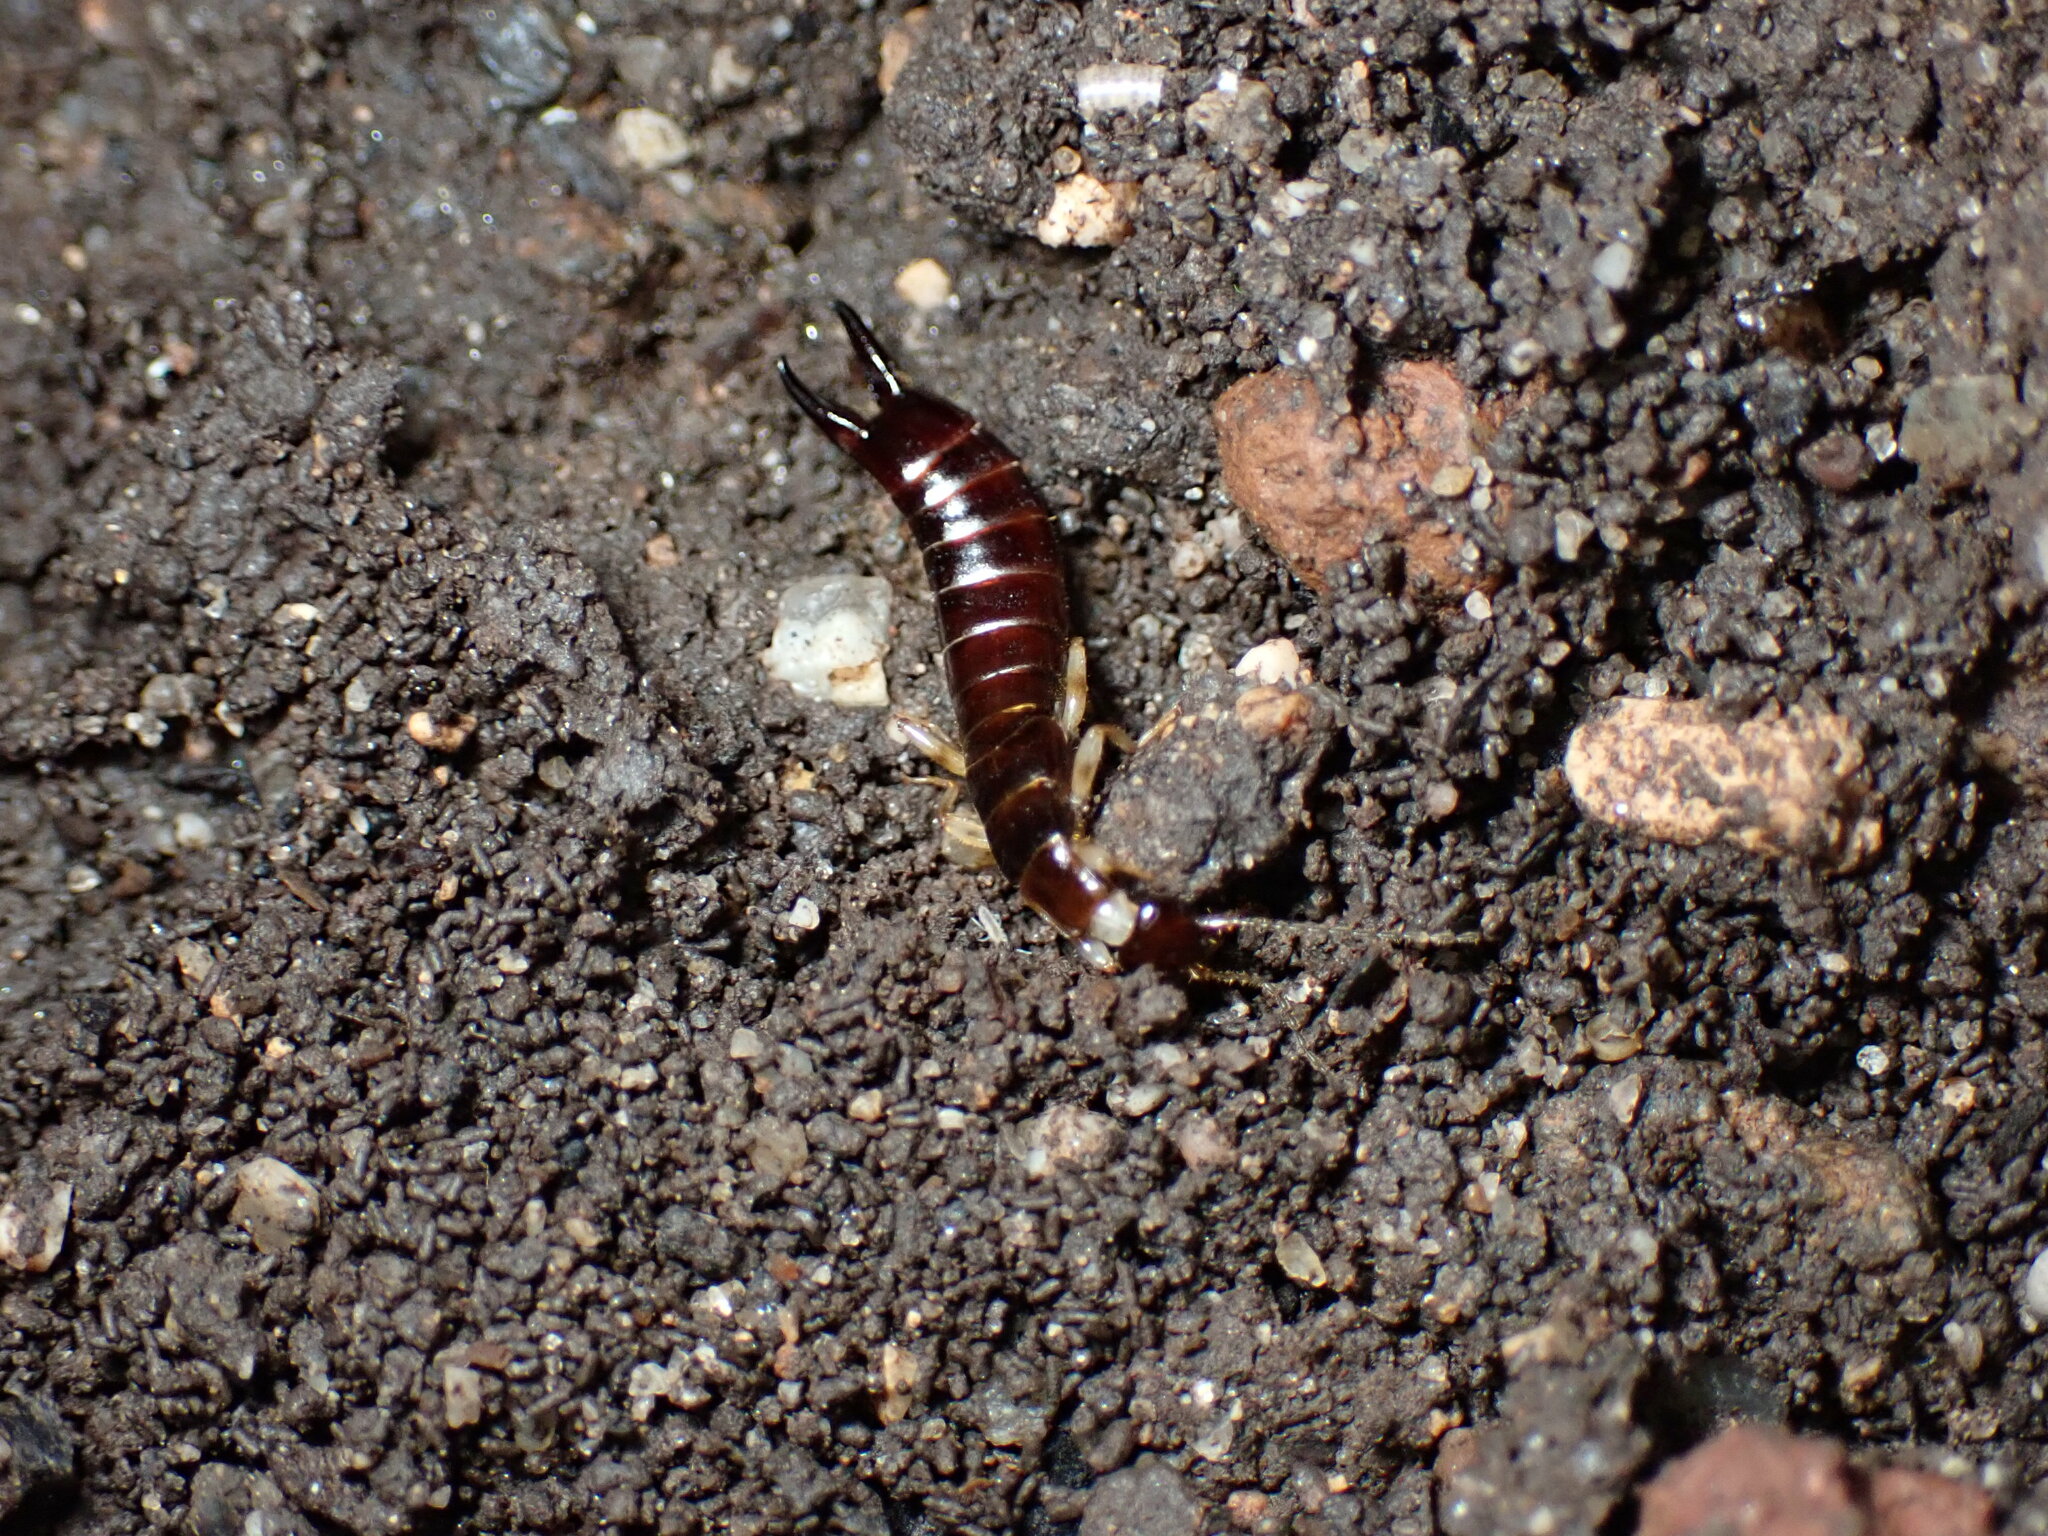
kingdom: Animalia
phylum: Arthropoda
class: Insecta
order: Dermaptera
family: Anisolabididae
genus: Euborellia
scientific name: Euborellia annulipes
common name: Ringlegged earwig
